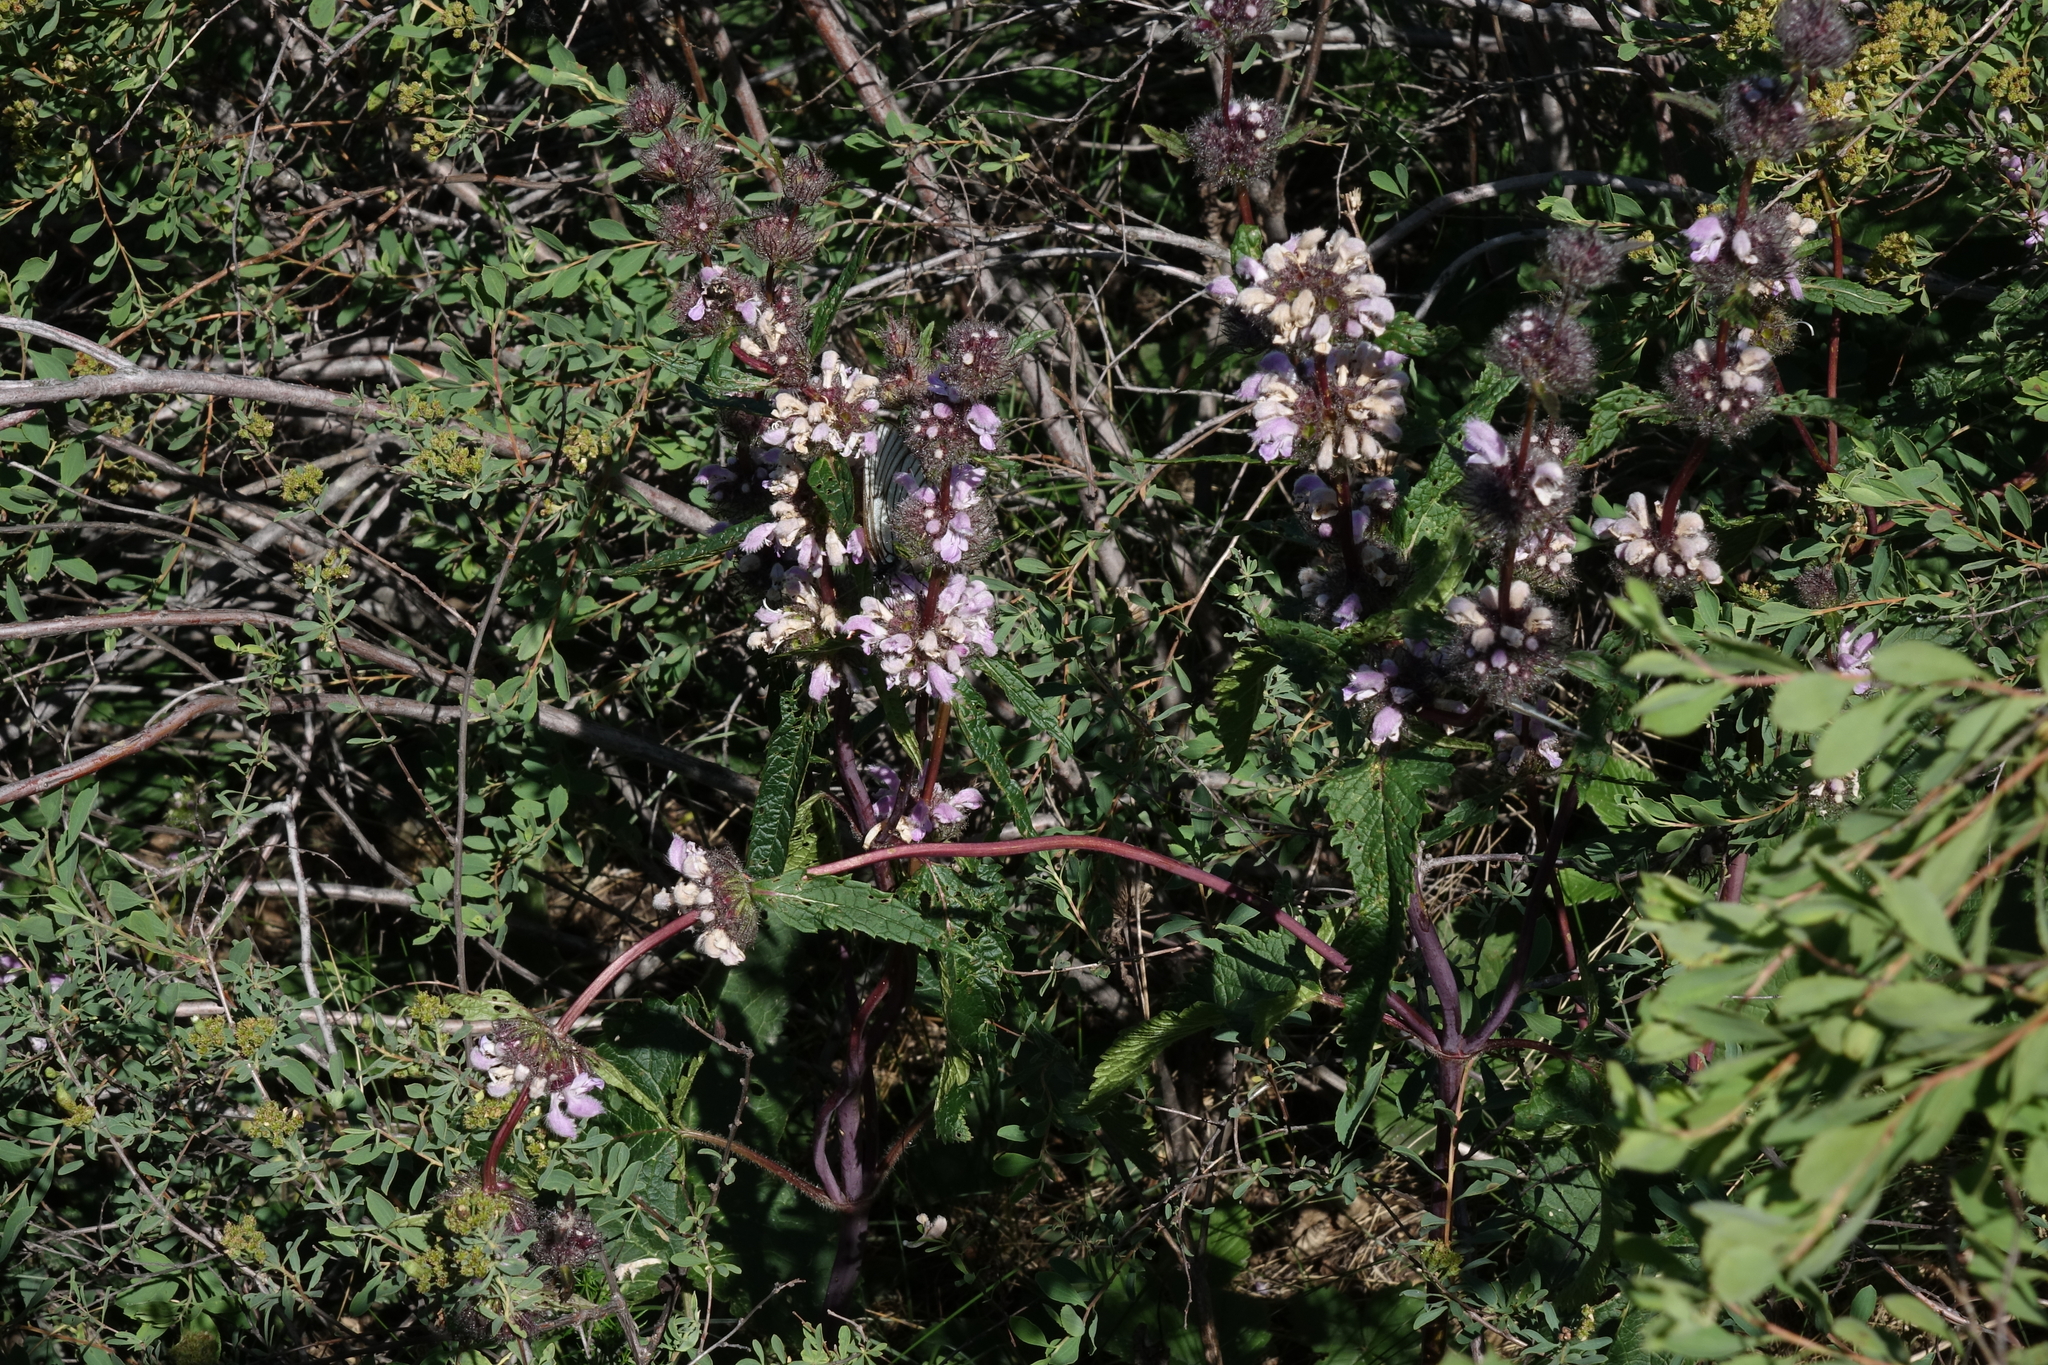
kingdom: Plantae
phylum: Tracheophyta
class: Magnoliopsida
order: Lamiales
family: Lamiaceae
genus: Phlomoides
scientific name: Phlomoides tuberosa
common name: Tuberous jerusalem sage
